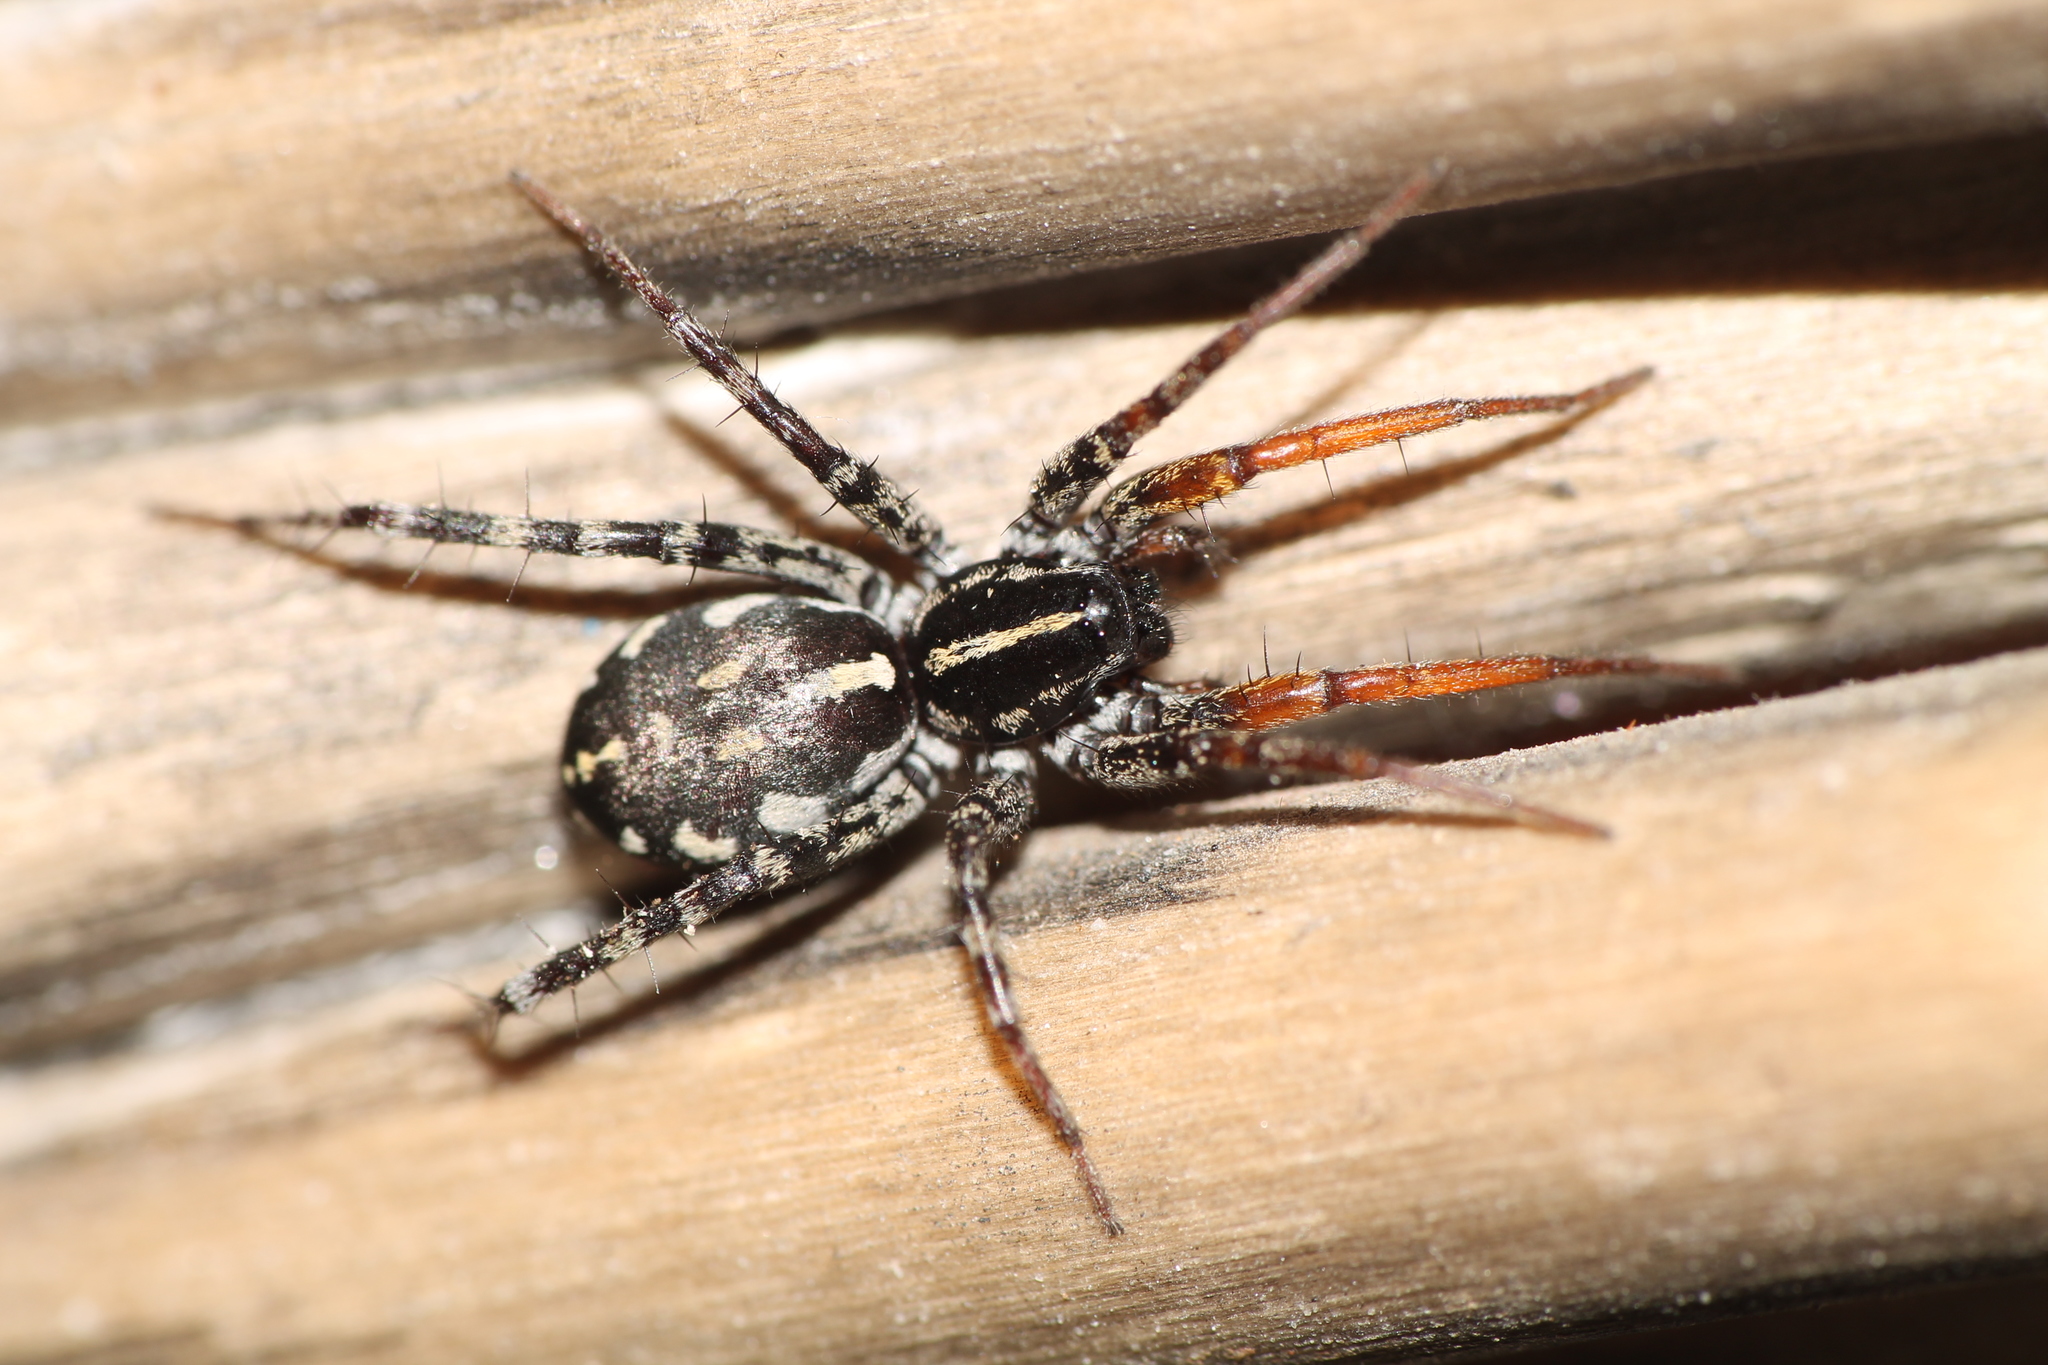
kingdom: Animalia
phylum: Arthropoda
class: Arachnida
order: Araneae
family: Corinnidae
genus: Nyssus
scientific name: Nyssus coloripes
